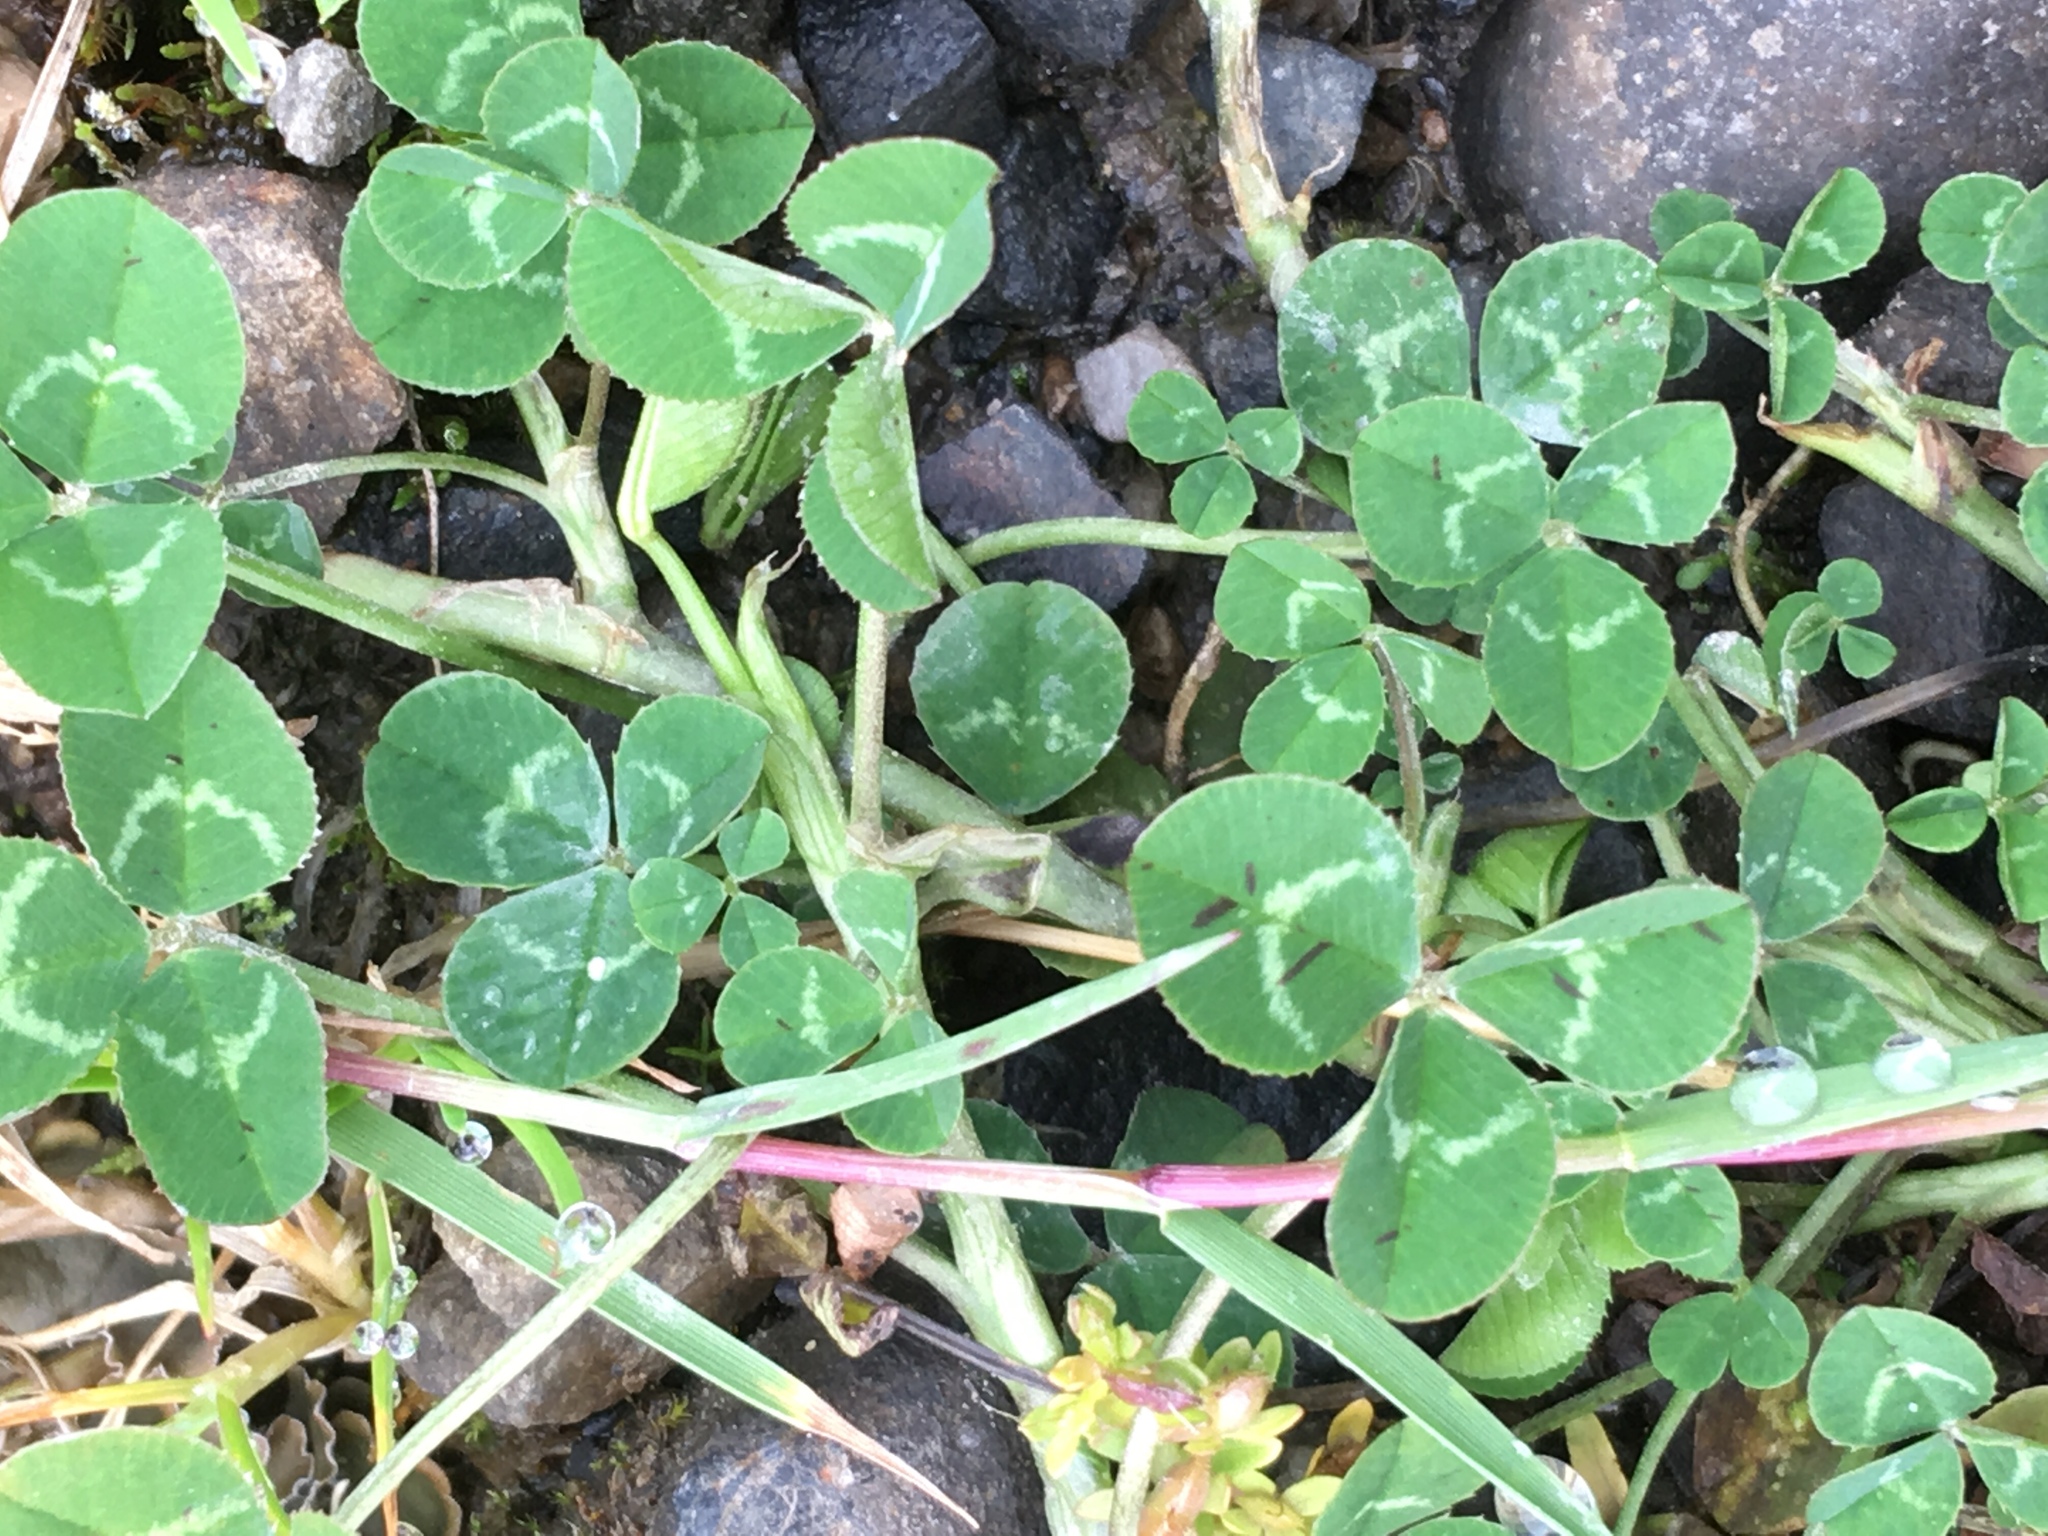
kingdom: Plantae
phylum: Tracheophyta
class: Magnoliopsida
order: Fabales
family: Fabaceae
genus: Trifolium
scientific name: Trifolium repens
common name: White clover
